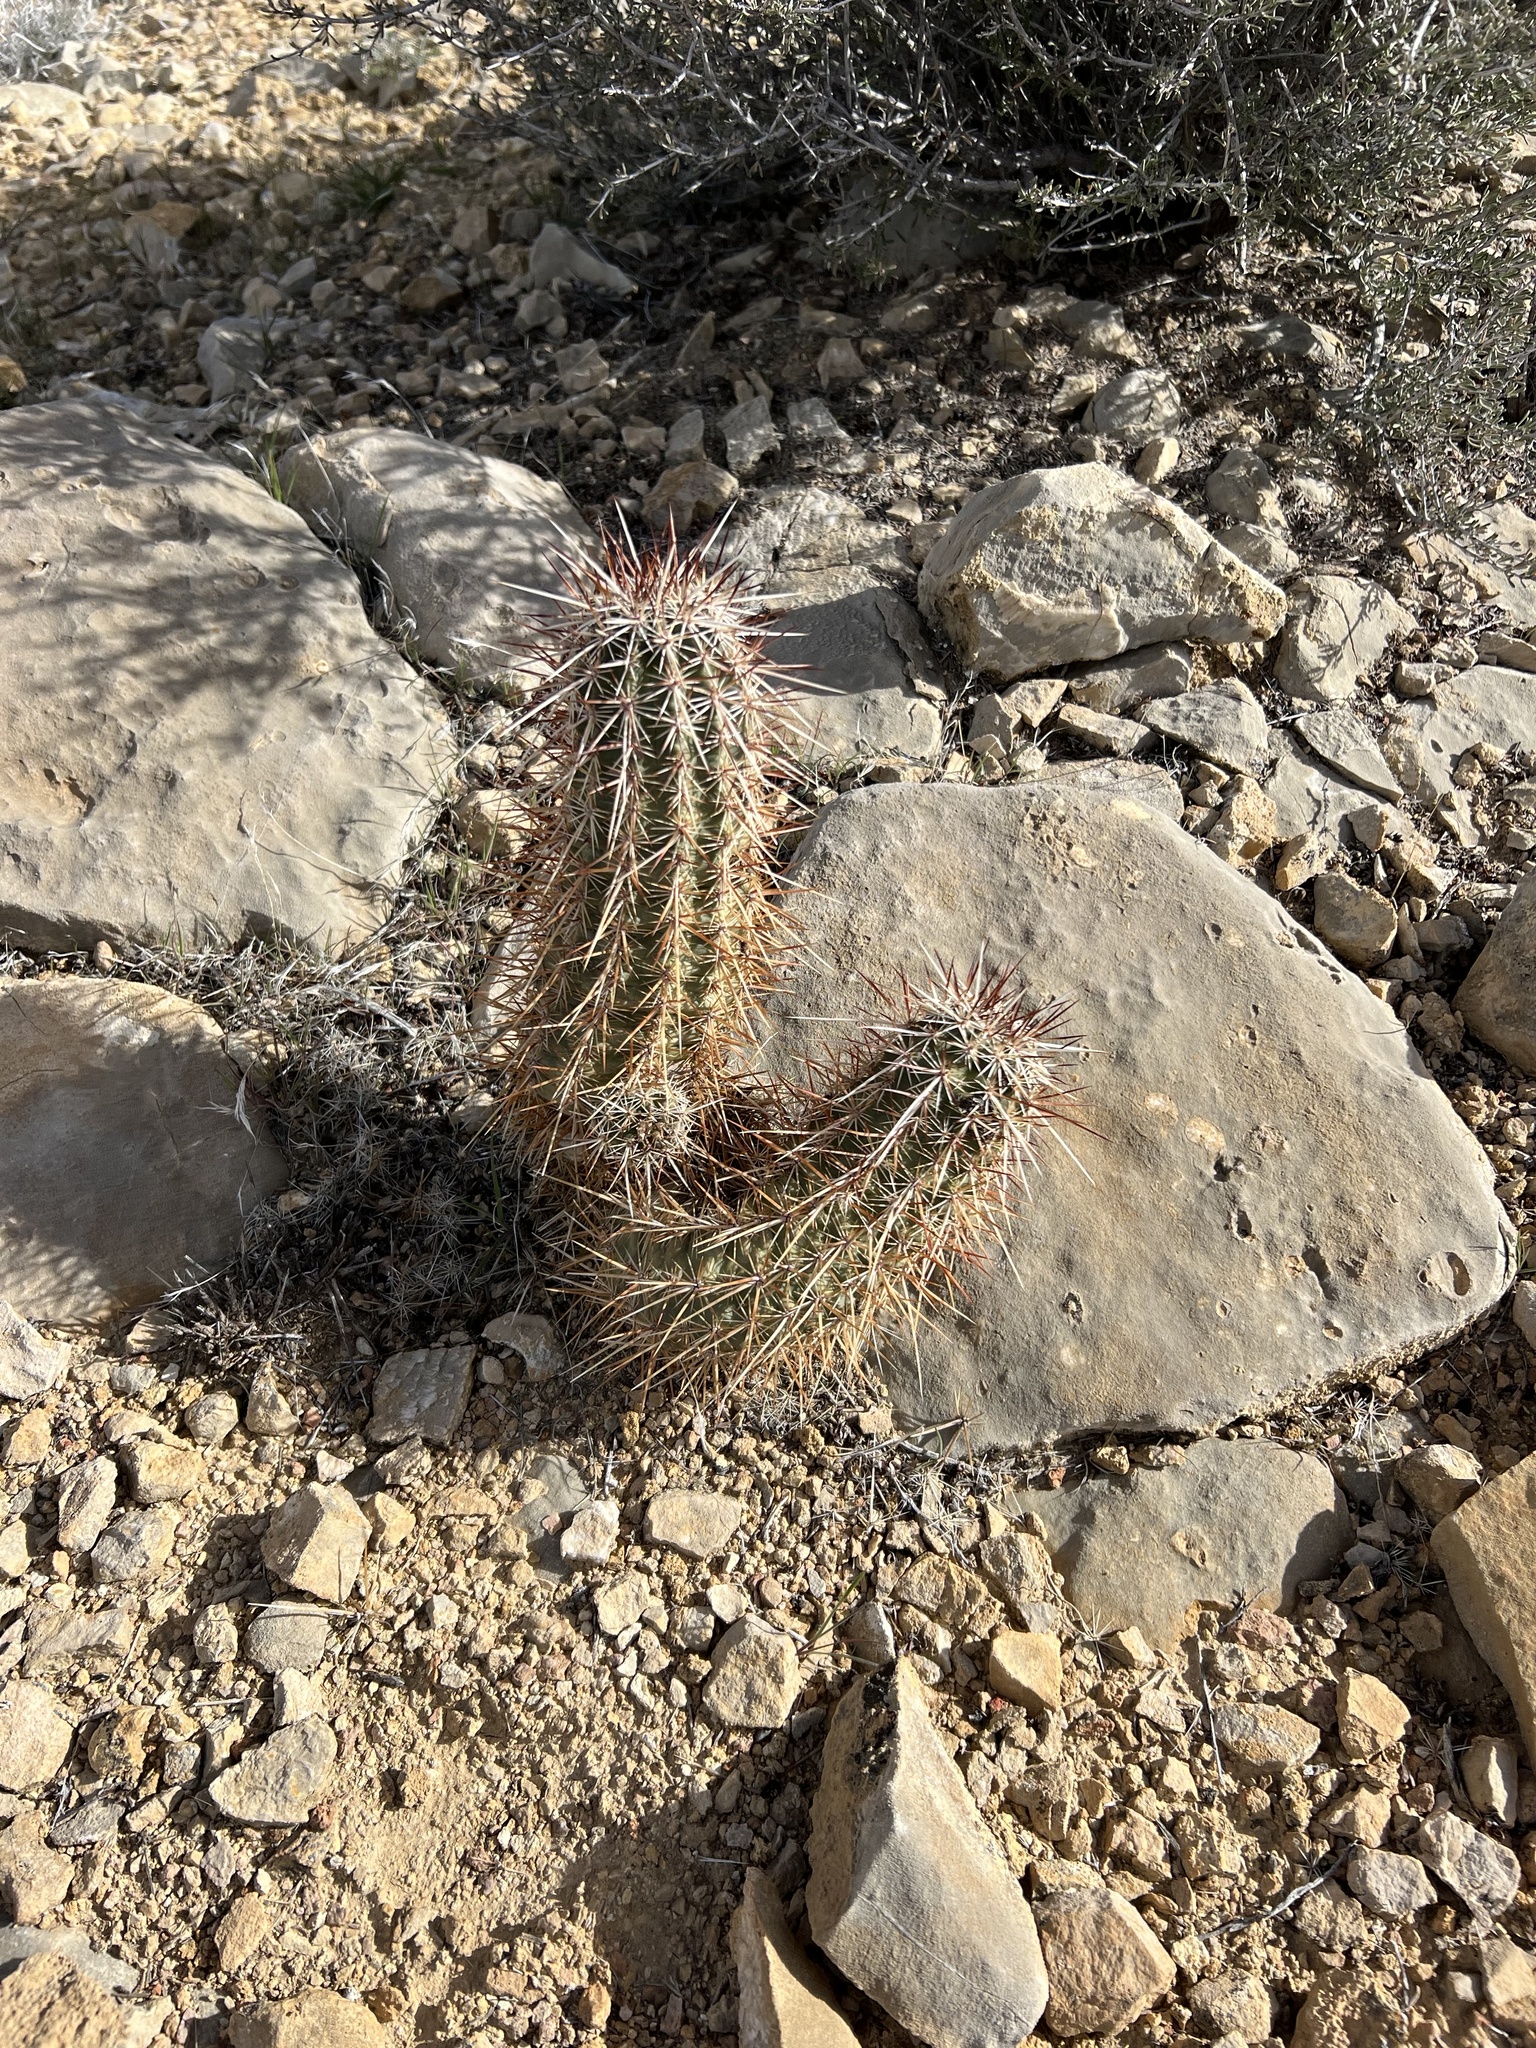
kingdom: Plantae
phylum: Tracheophyta
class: Magnoliopsida
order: Caryophyllales
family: Cactaceae
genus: Echinocereus
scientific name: Echinocereus engelmannii
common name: Engelmann's hedgehog cactus
